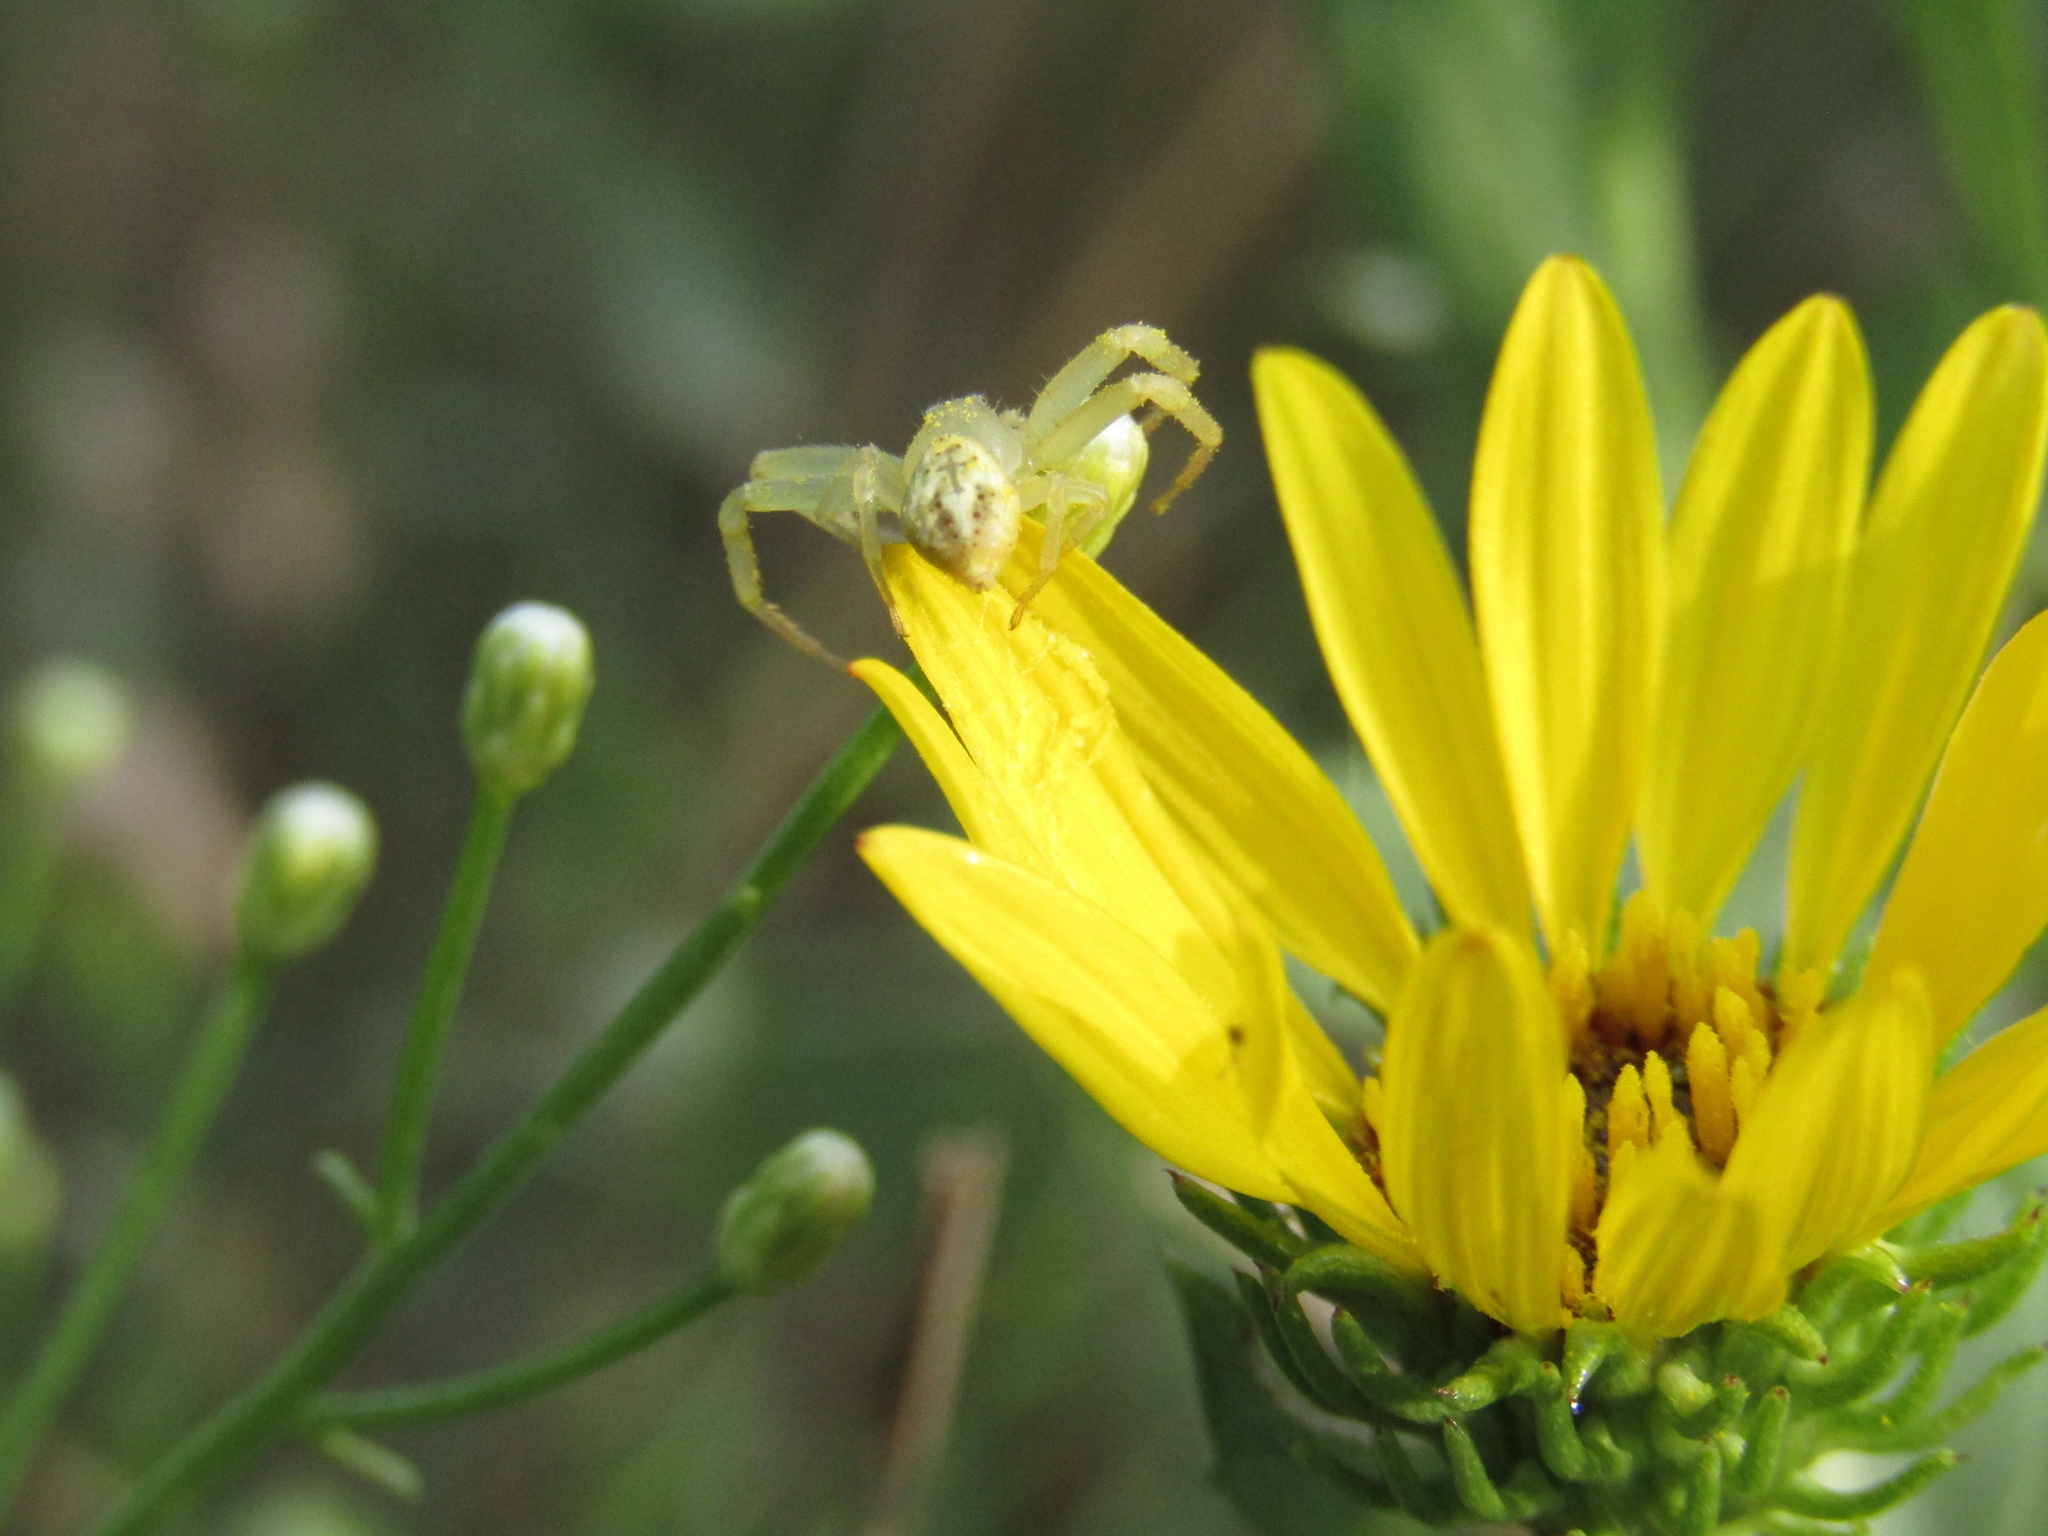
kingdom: Animalia
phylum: Arthropoda
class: Arachnida
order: Araneae
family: Thomisidae
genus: Misumenops
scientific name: Misumenops
